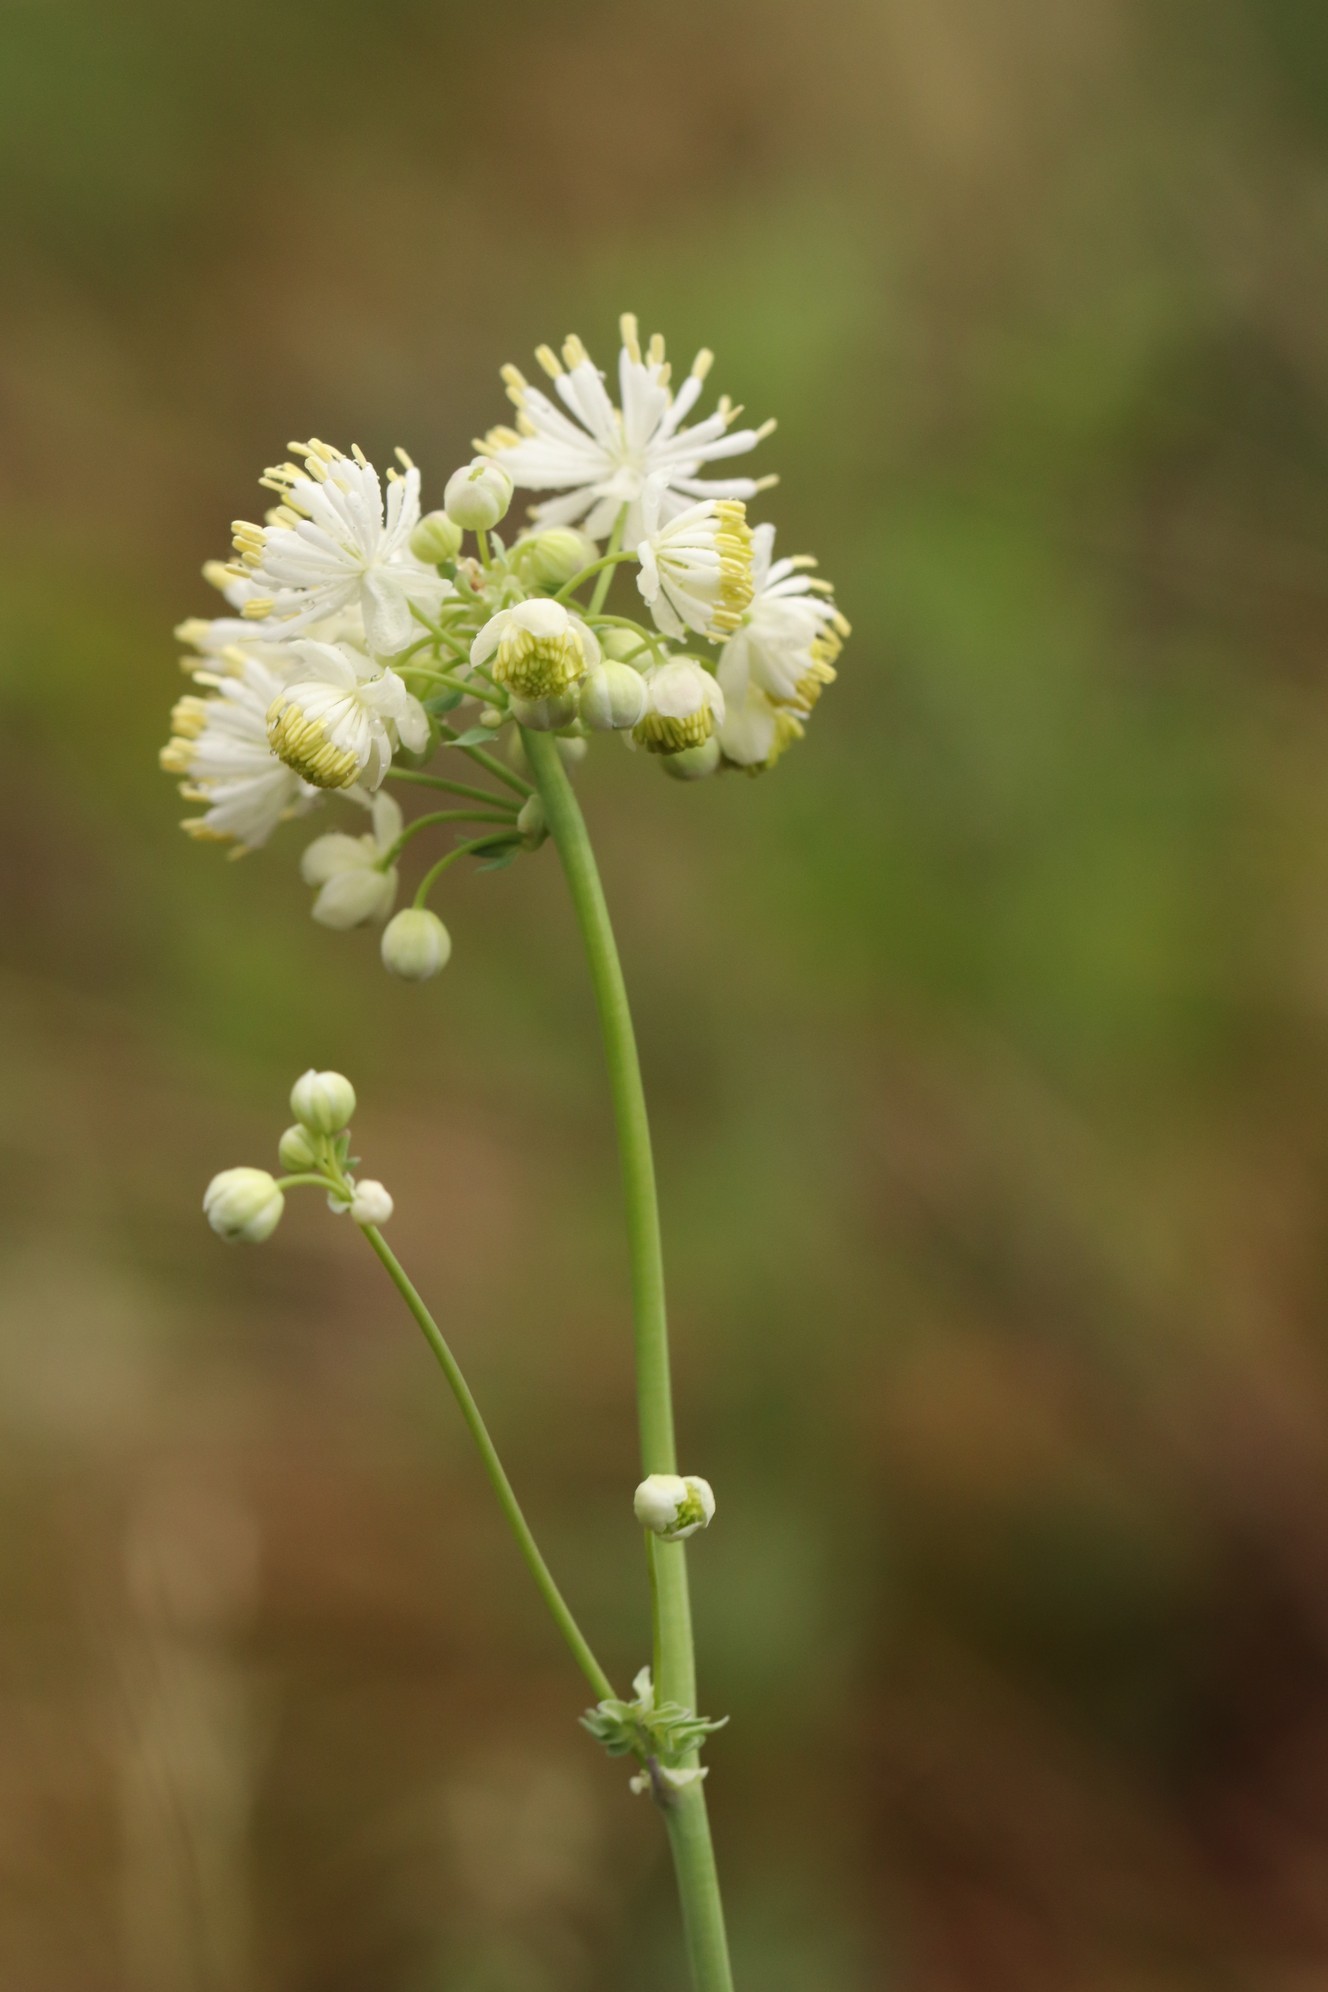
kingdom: Plantae
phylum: Tracheophyta
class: Magnoliopsida
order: Ranunculales
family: Ranunculaceae
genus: Thalictrum
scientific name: Thalictrum petaloideum
